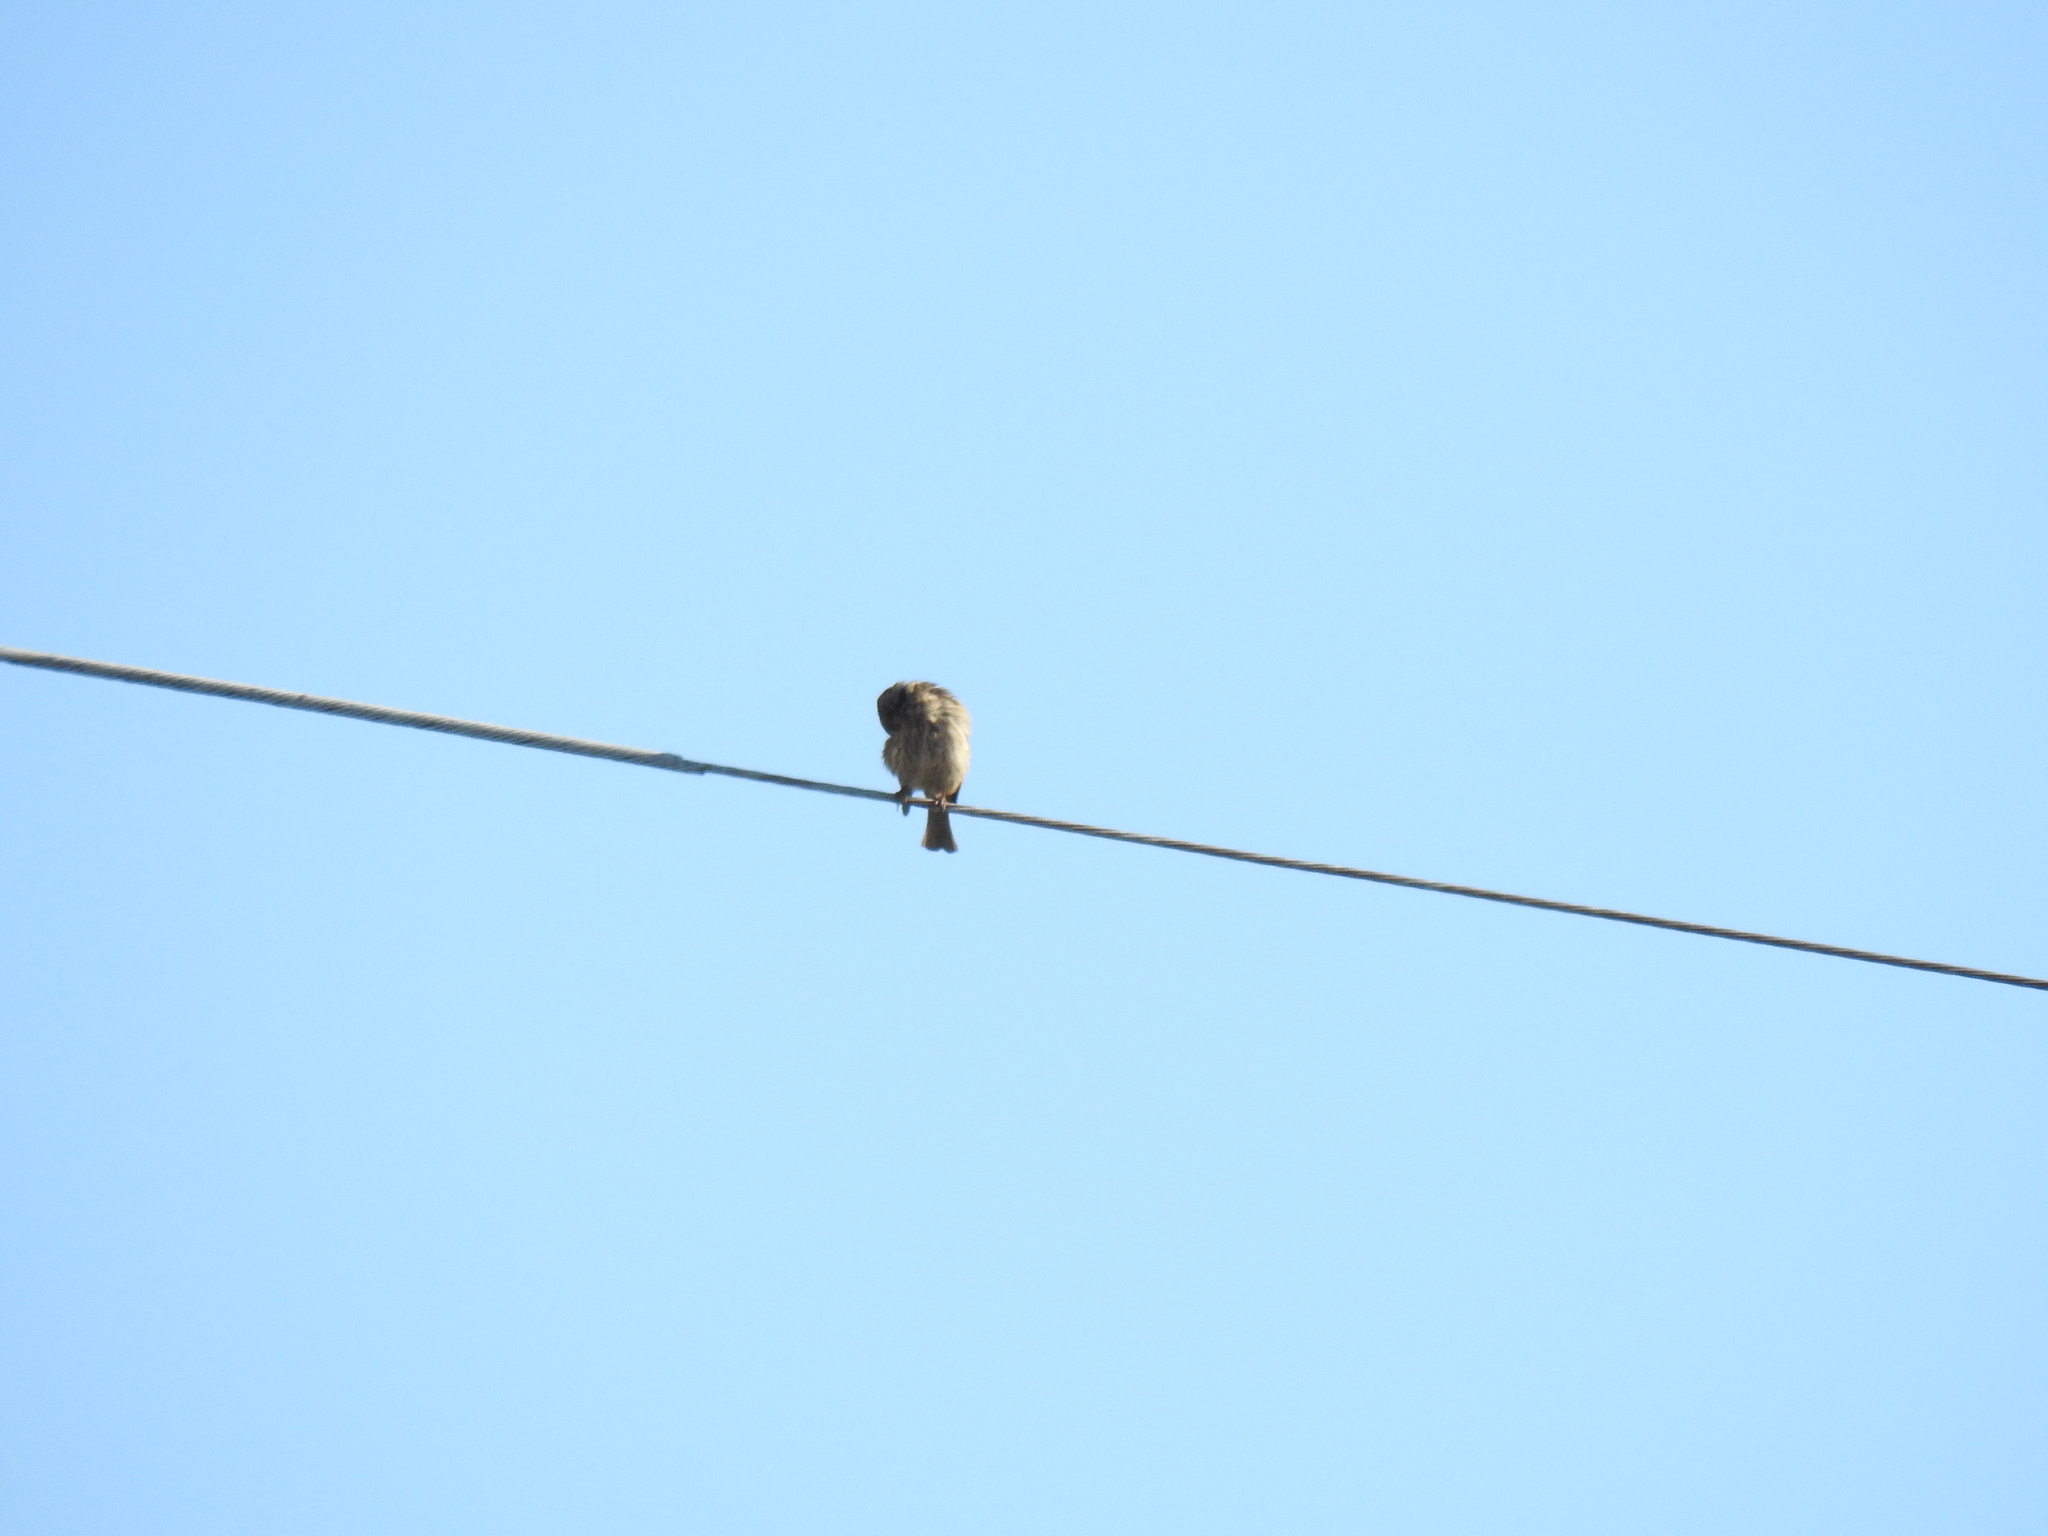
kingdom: Animalia
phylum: Chordata
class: Aves
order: Passeriformes
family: Fringillidae
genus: Haemorhous
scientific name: Haemorhous mexicanus
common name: House finch
